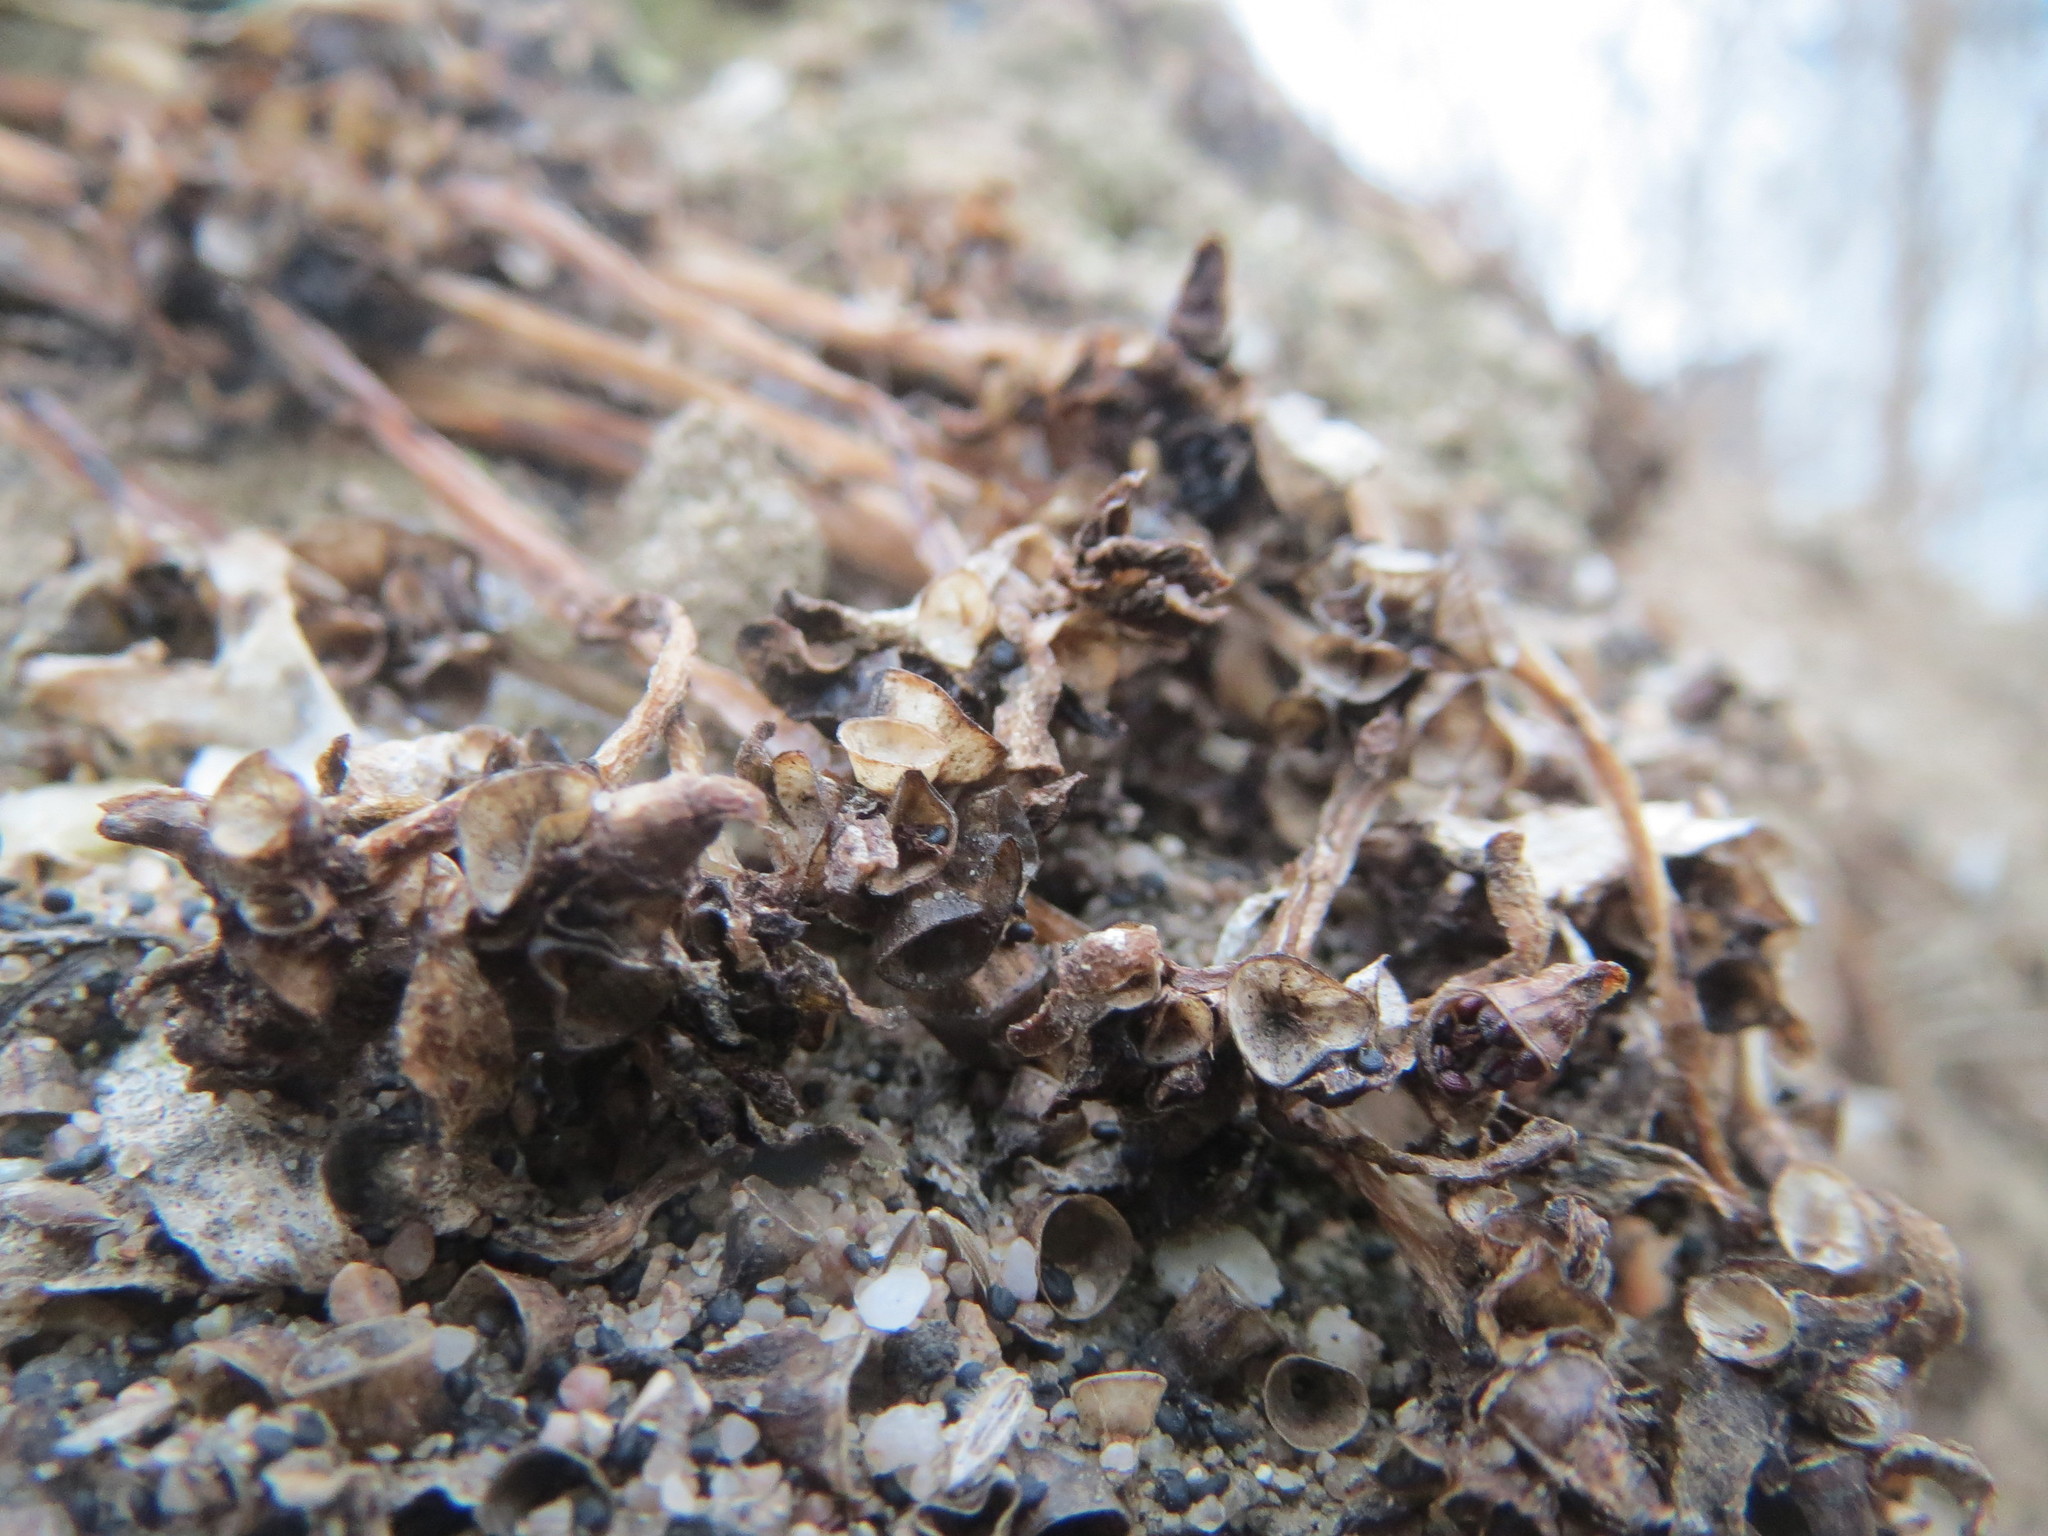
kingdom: Plantae
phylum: Tracheophyta
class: Magnoliopsida
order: Caryophyllales
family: Portulacaceae
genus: Portulaca
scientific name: Portulaca oleracea
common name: Common purslane
